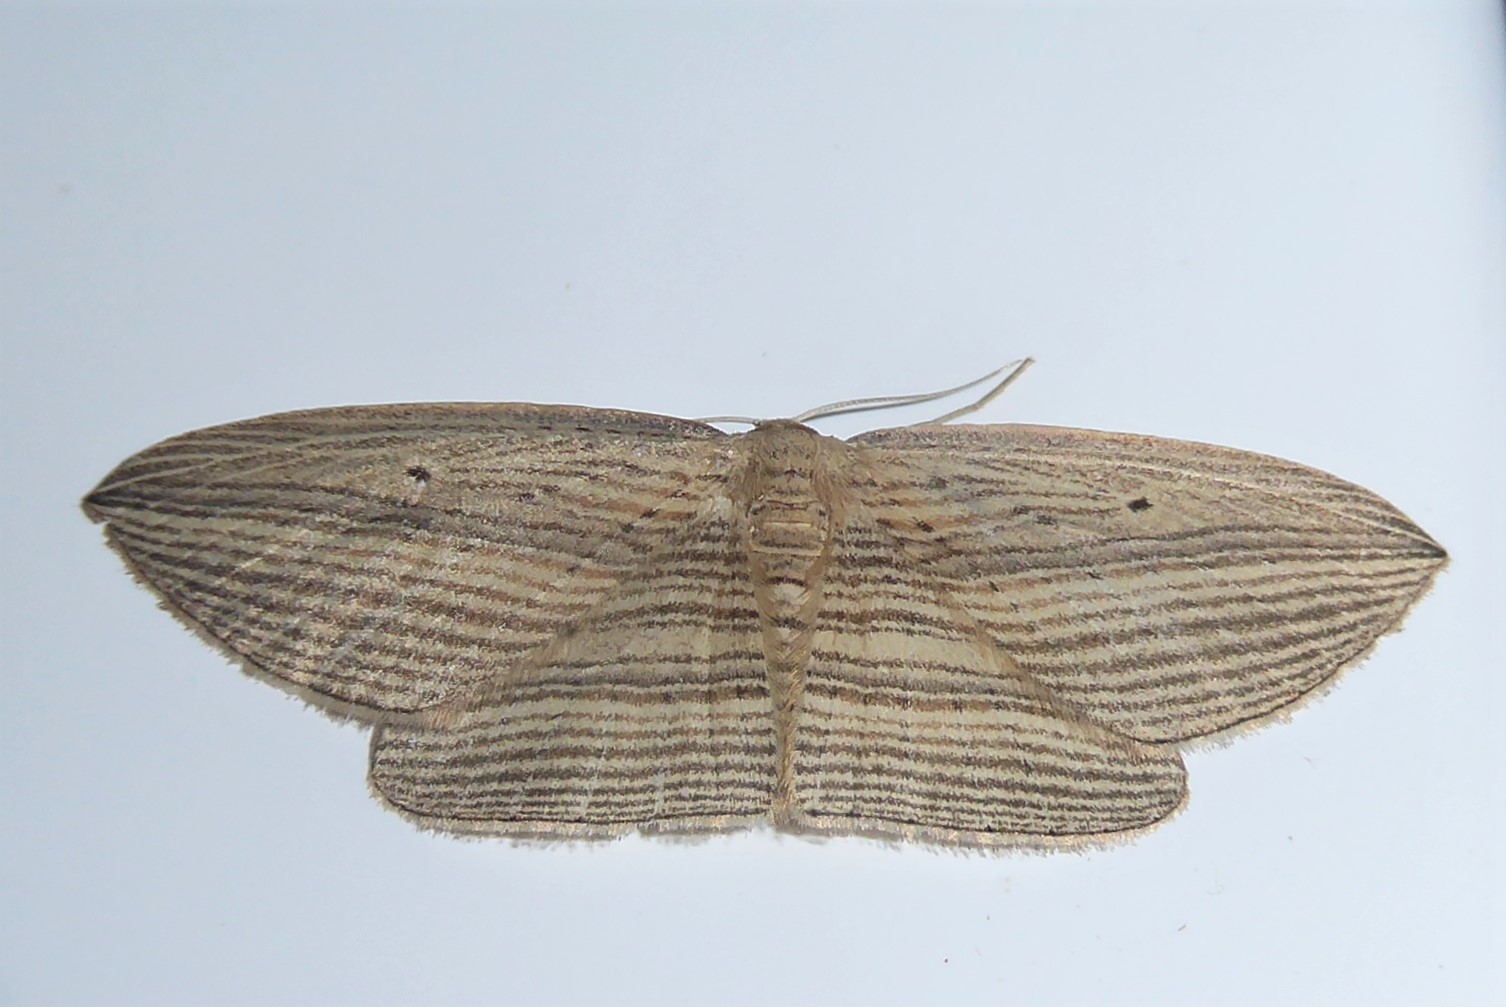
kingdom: Animalia
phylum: Arthropoda
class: Insecta
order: Lepidoptera
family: Geometridae
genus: Epiphryne
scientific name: Epiphryne verriculata
